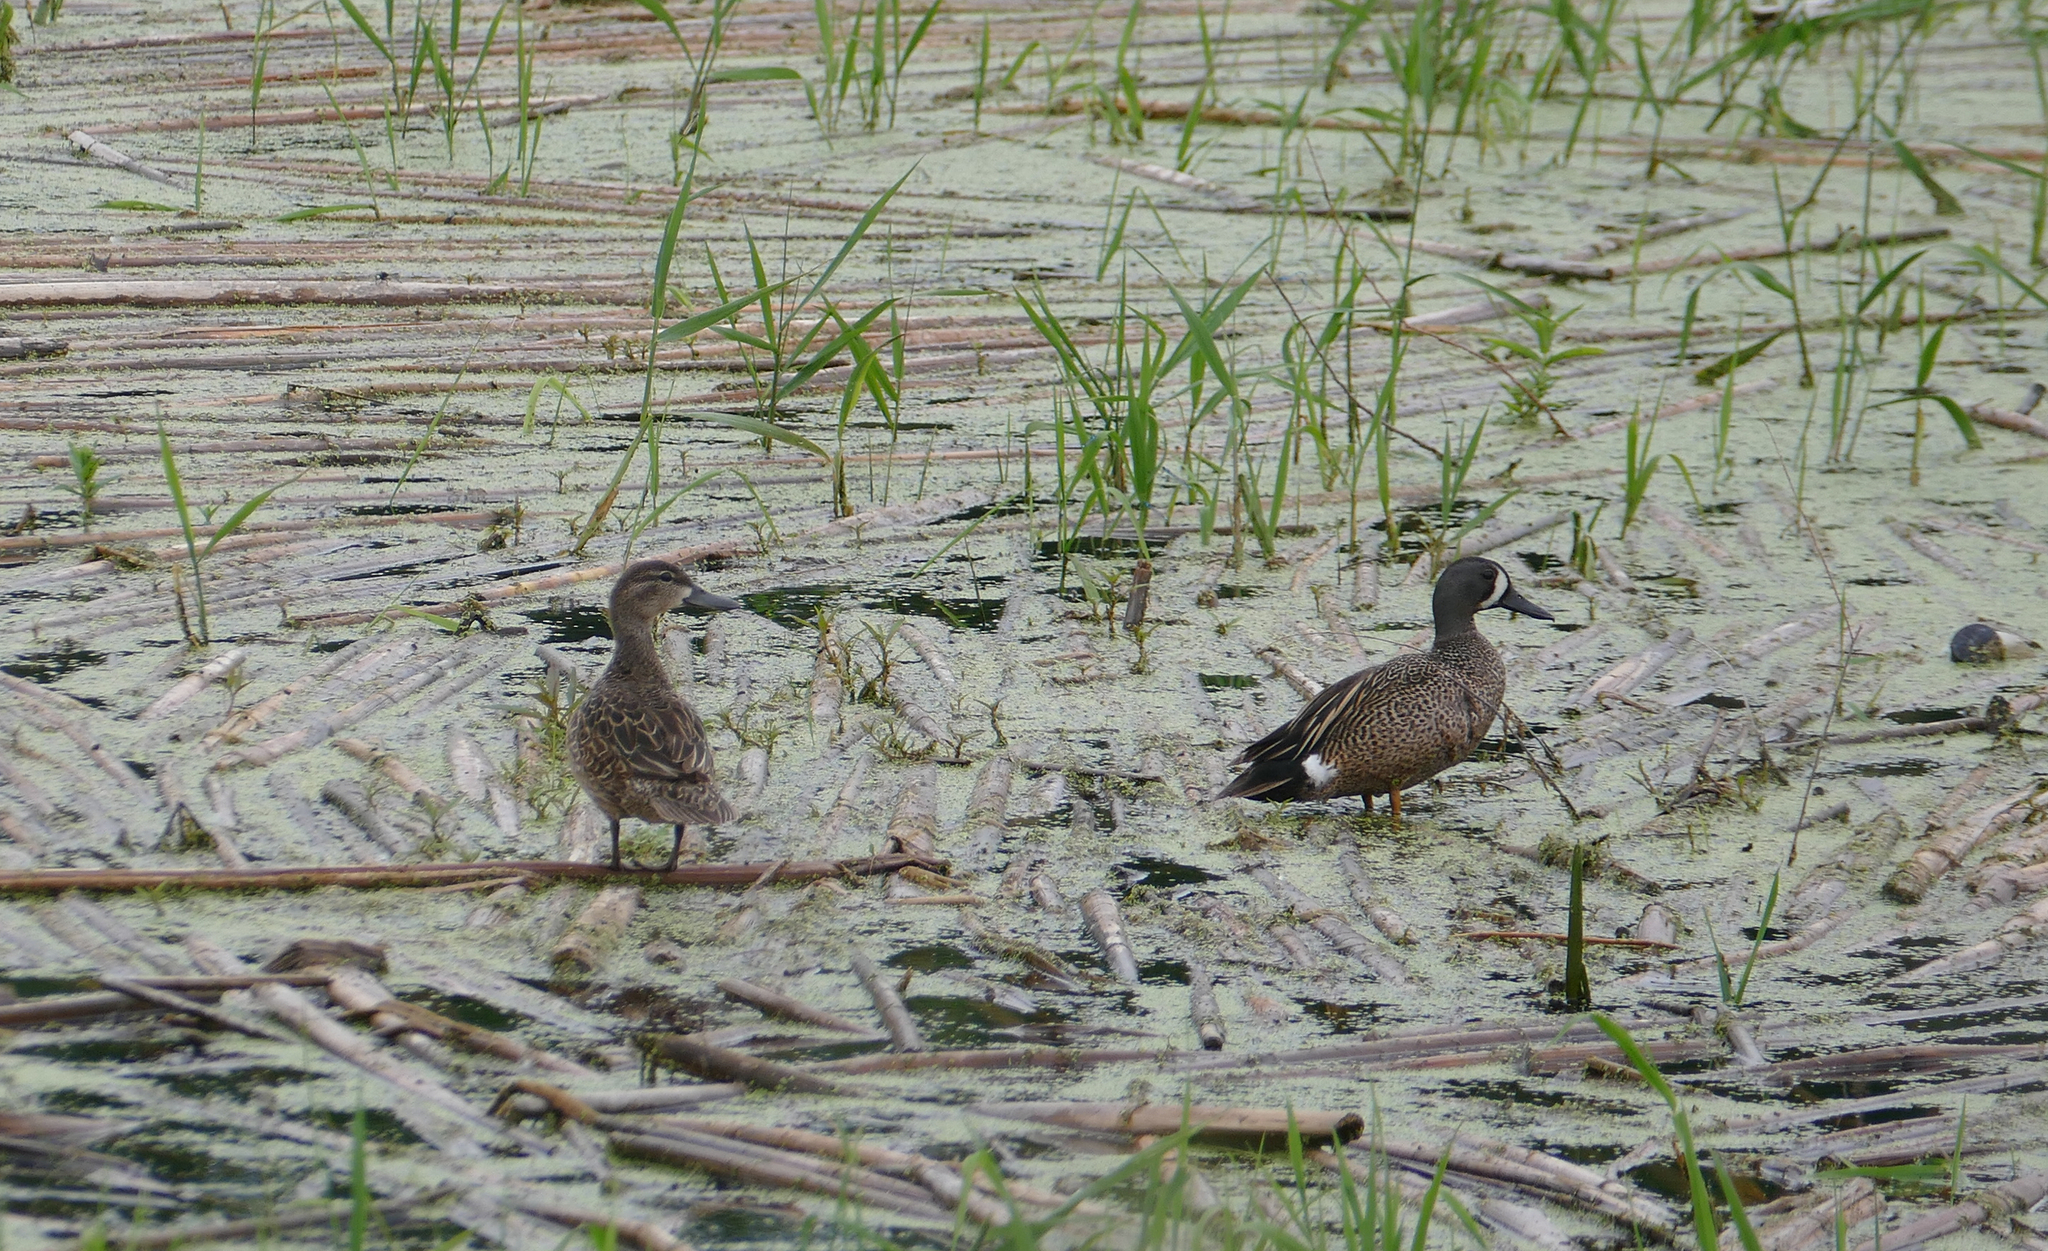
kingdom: Animalia
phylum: Chordata
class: Aves
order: Anseriformes
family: Anatidae
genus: Spatula
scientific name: Spatula discors
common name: Blue-winged teal
